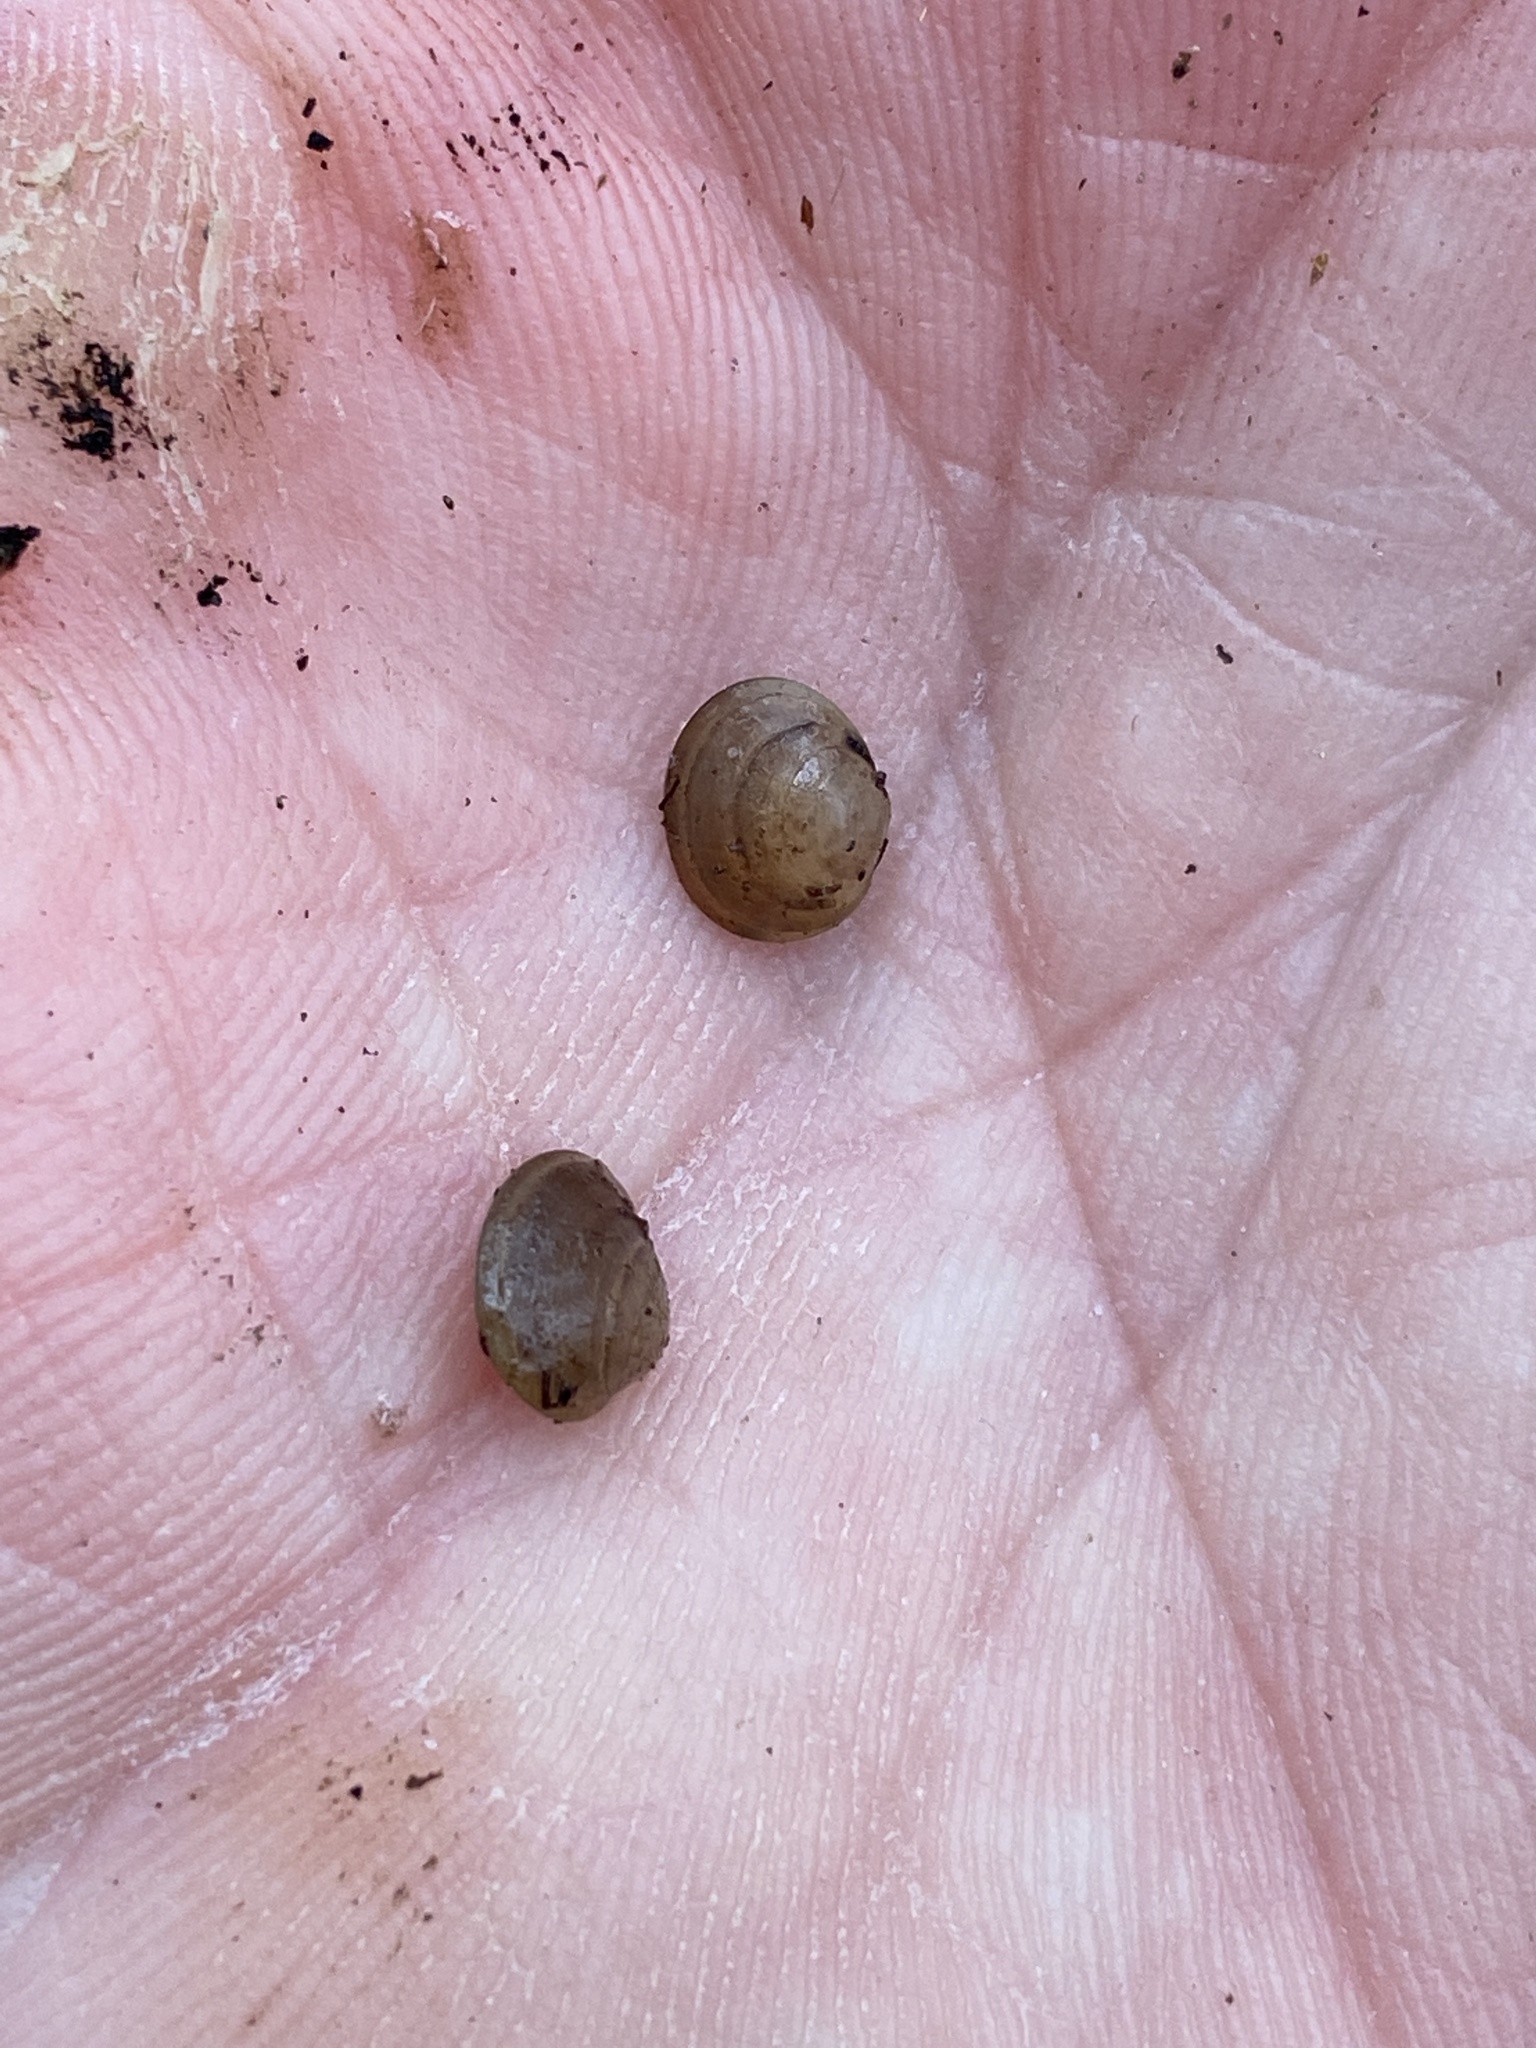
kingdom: Animalia
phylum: Mollusca
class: Bivalvia
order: Sphaeriida
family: Sphaeriidae
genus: Sphaerium
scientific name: Sphaerium occidentale
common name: Herrington fingernailclam
